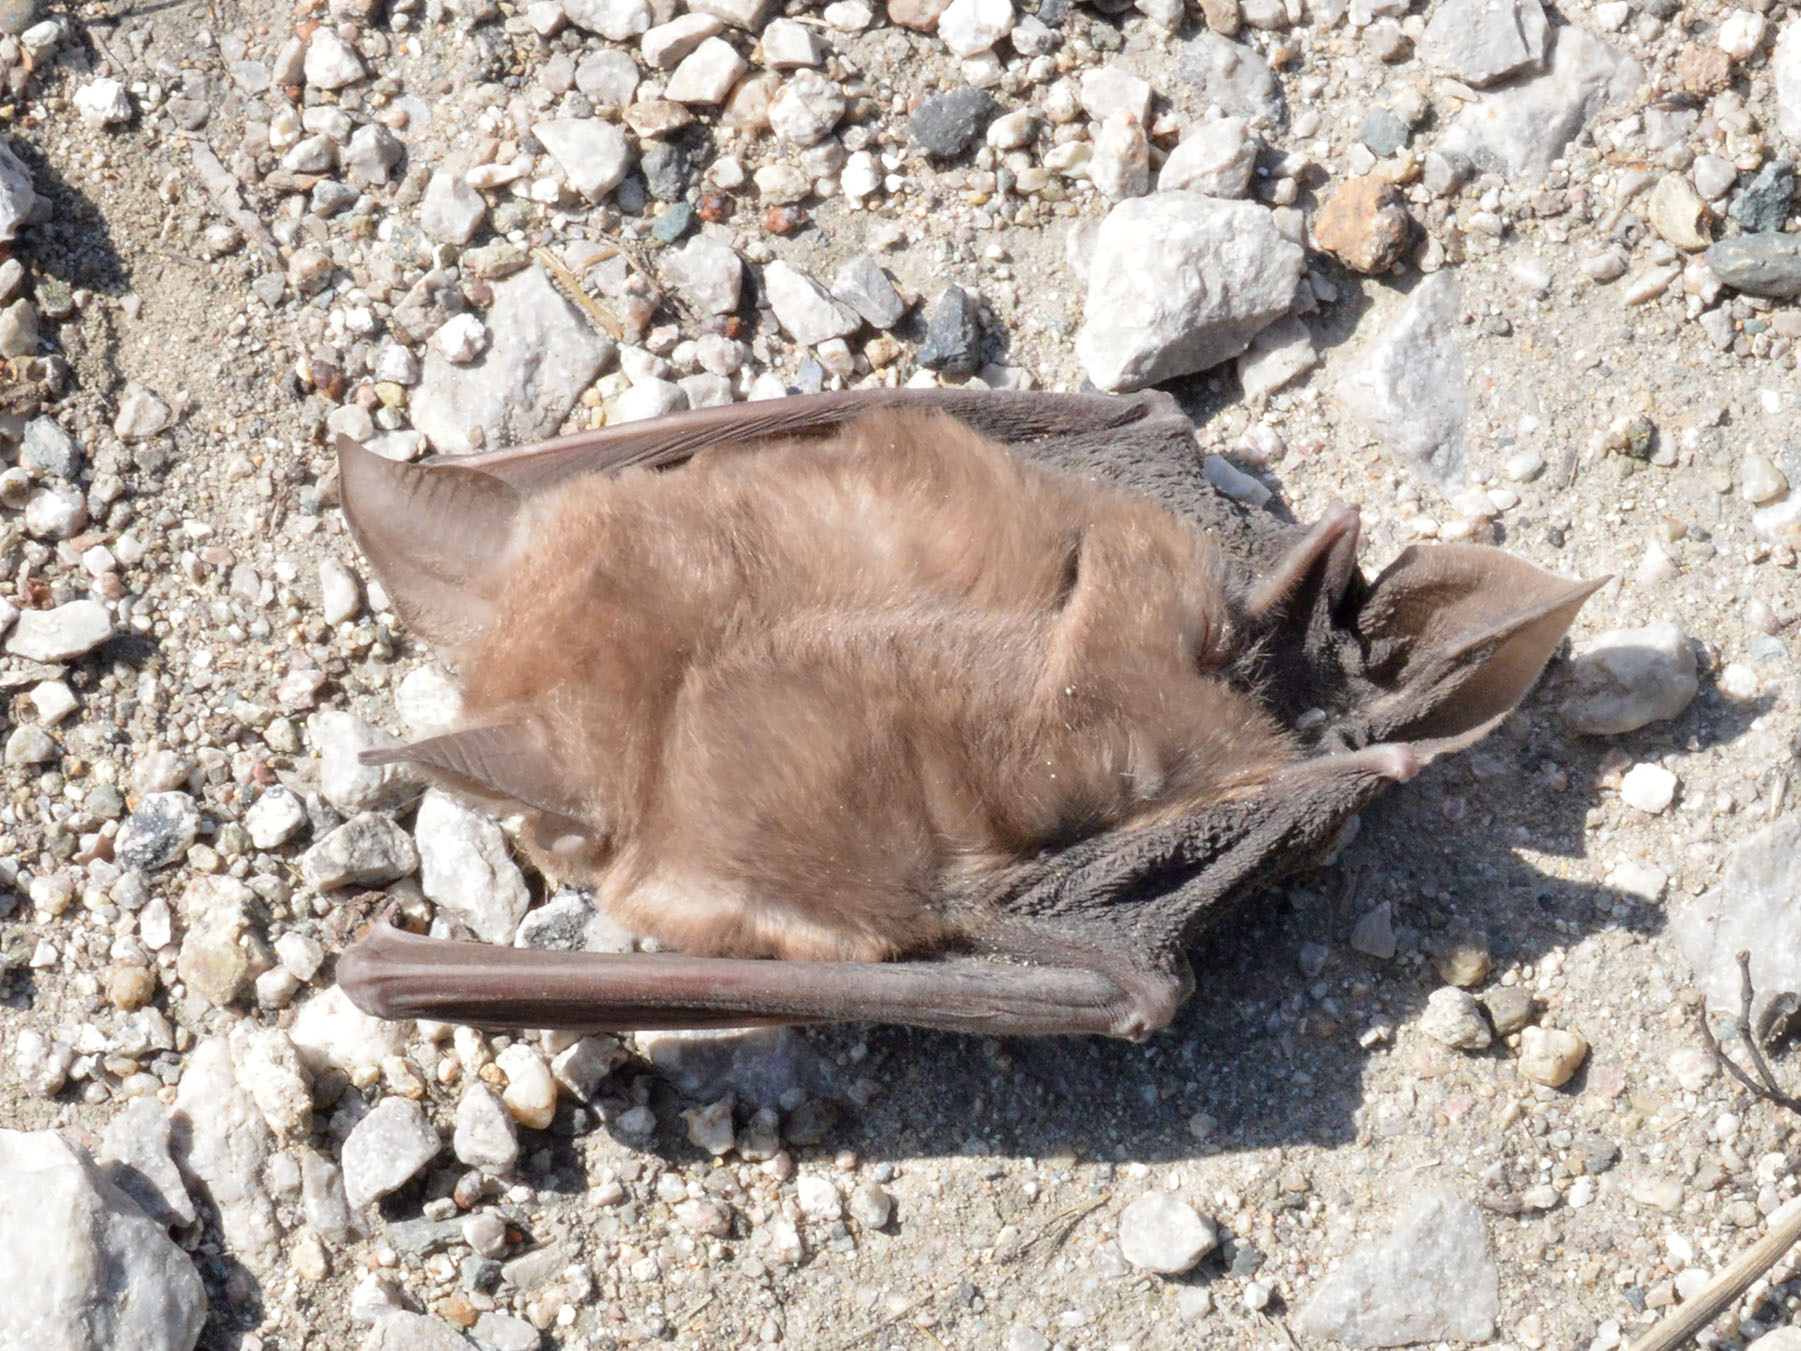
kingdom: Animalia
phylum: Chordata
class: Mammalia
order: Chiroptera
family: Rhinolophidae
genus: Rhinolophus
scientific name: Rhinolophus ferrumequinum
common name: Greater horseshoe bat
